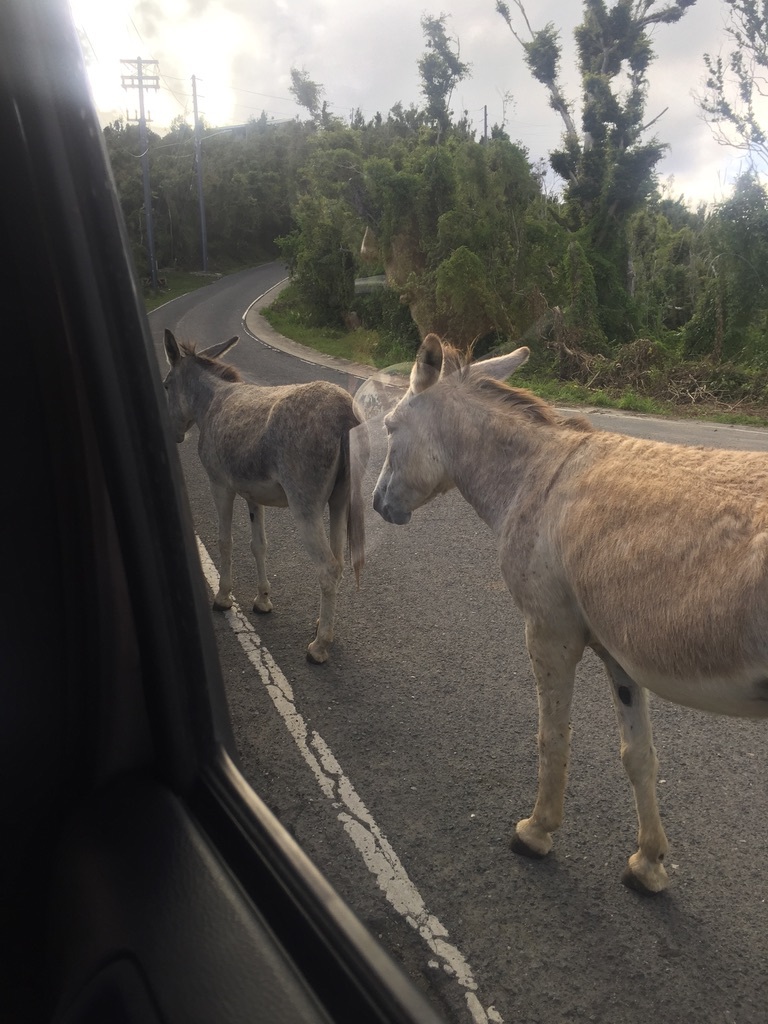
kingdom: Animalia
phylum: Chordata
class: Mammalia
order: Perissodactyla
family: Equidae
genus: Equus
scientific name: Equus asinus
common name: Ass
